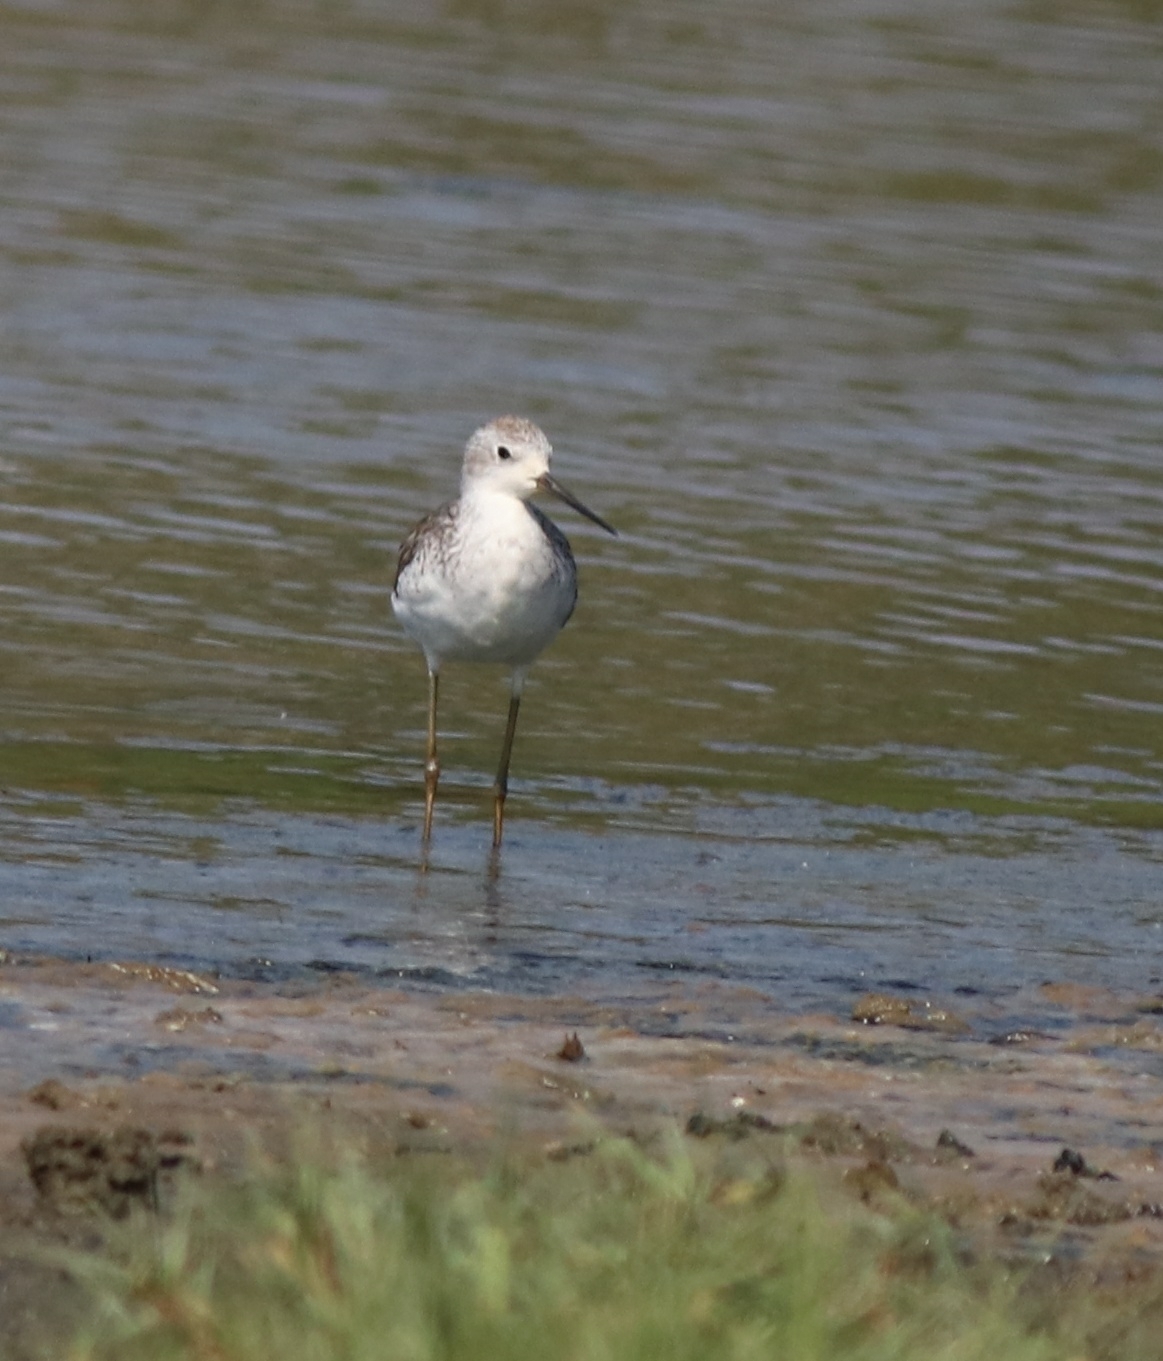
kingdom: Animalia
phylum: Chordata
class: Aves
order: Charadriiformes
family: Scolopacidae
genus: Tringa
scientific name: Tringa stagnatilis
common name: Marsh sandpiper
